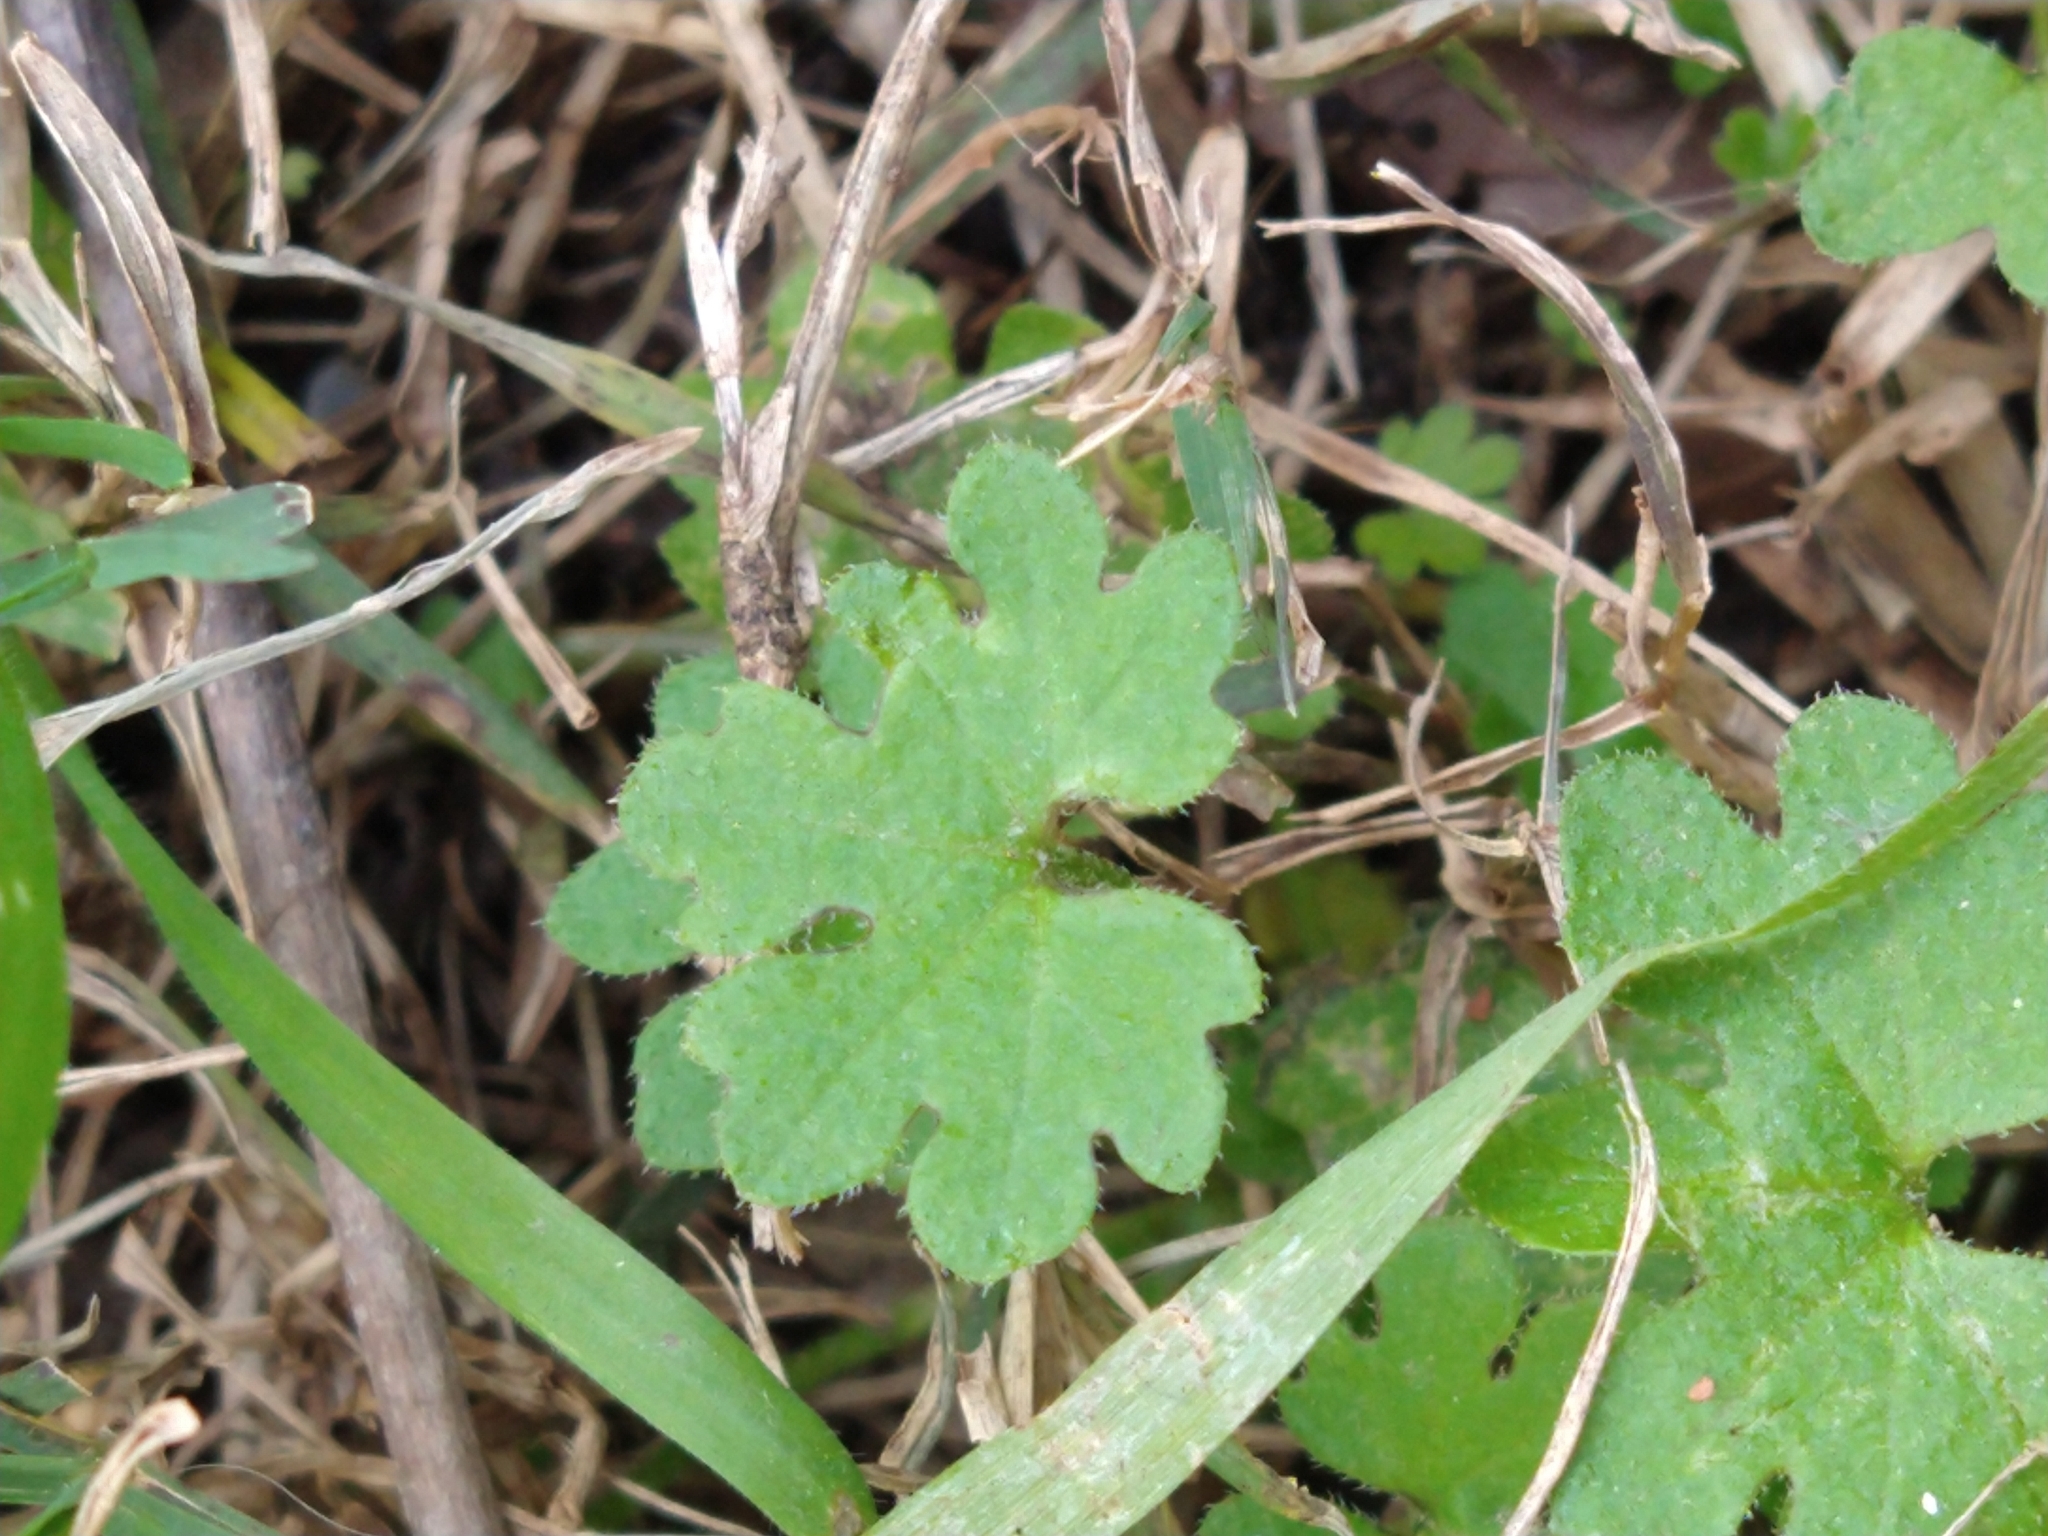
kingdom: Plantae
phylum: Tracheophyta
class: Magnoliopsida
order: Apiales
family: Apiaceae
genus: Bowlesia
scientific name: Bowlesia incana
